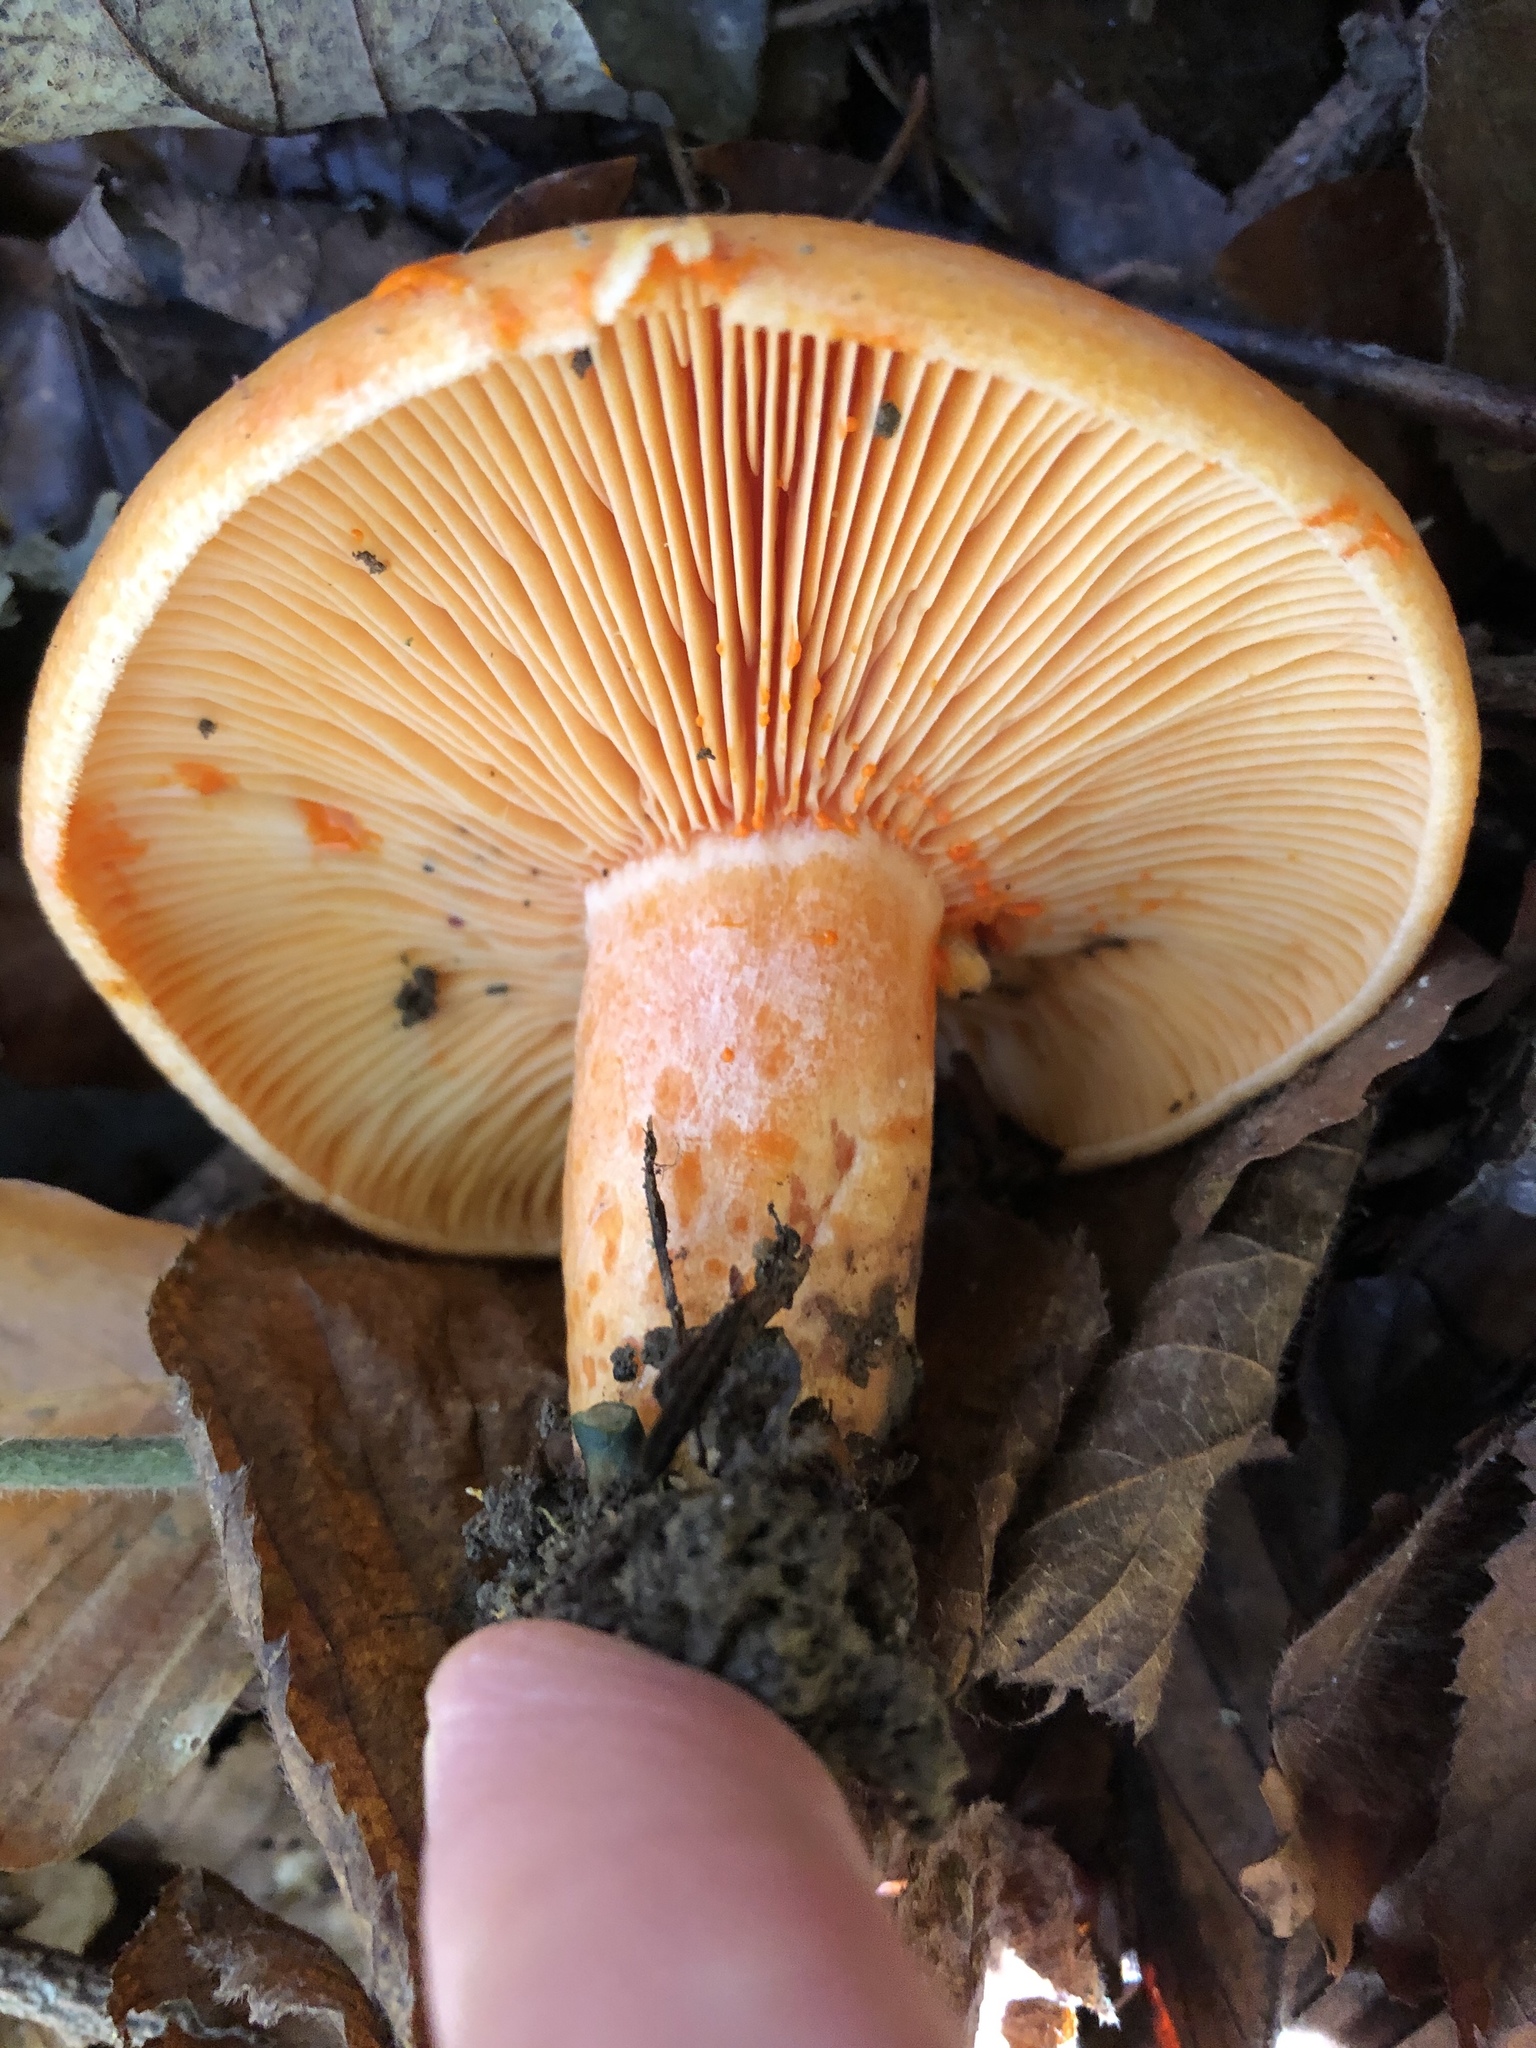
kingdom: Fungi
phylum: Basidiomycota
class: Agaricomycetes
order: Russulales
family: Russulaceae
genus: Lactarius
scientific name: Lactarius deliciosus
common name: Saffron milk-cap
